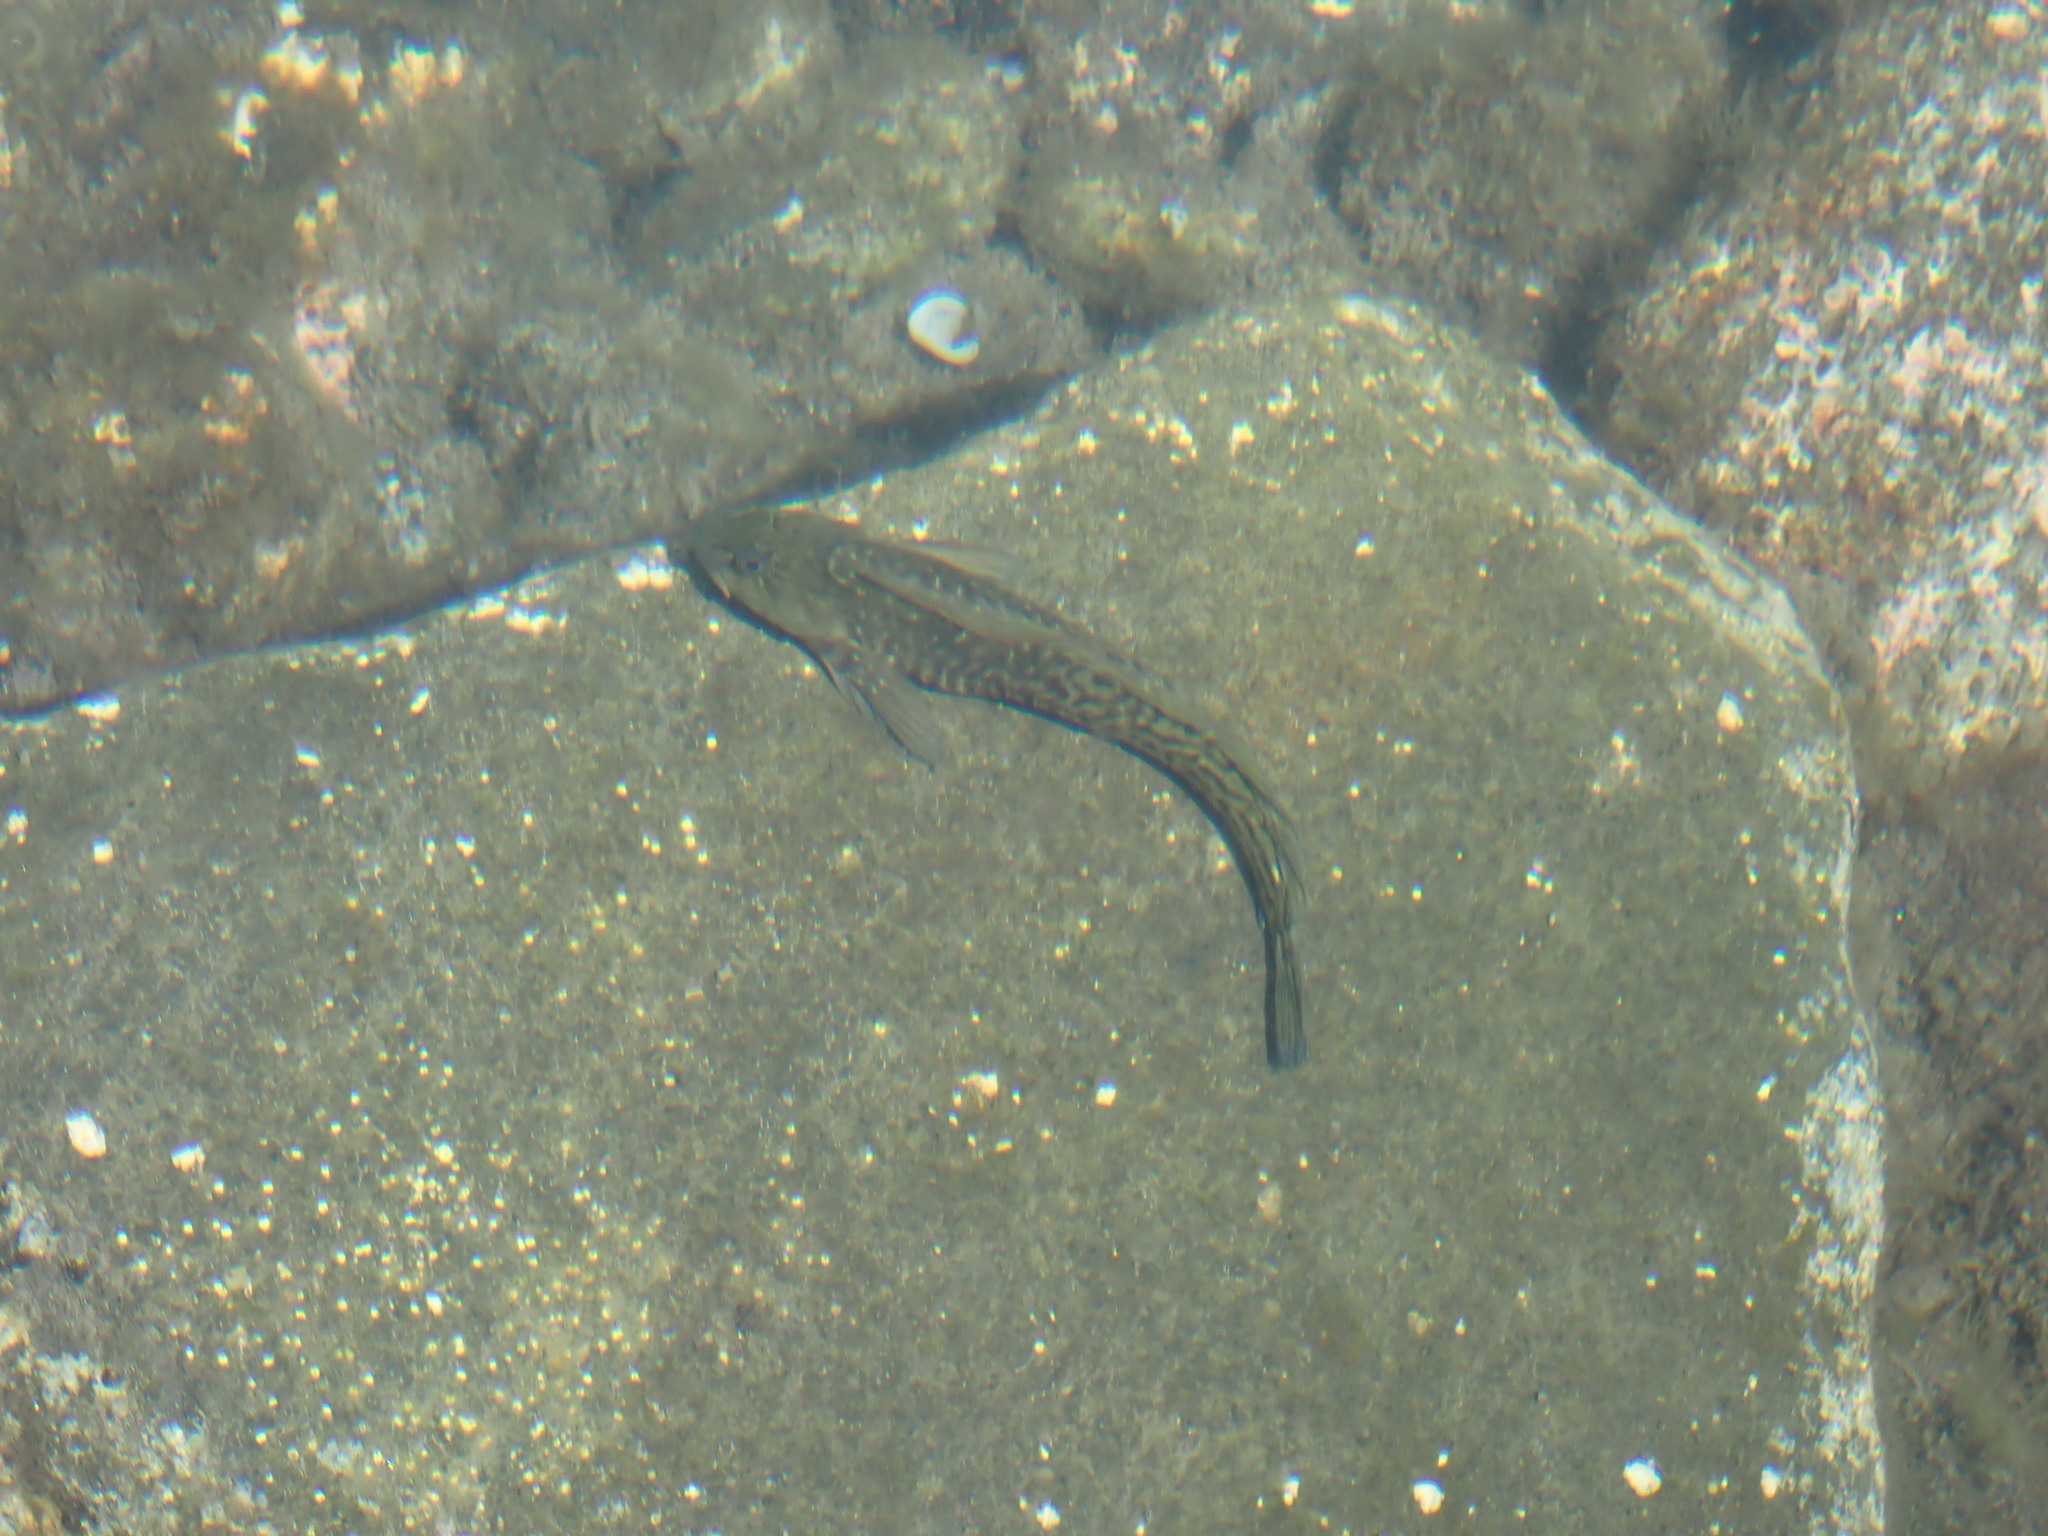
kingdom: Animalia
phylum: Chordata
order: Perciformes
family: Blenniidae
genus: Parablennius
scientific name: Parablennius parvicornis
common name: Rock-pool blenny
